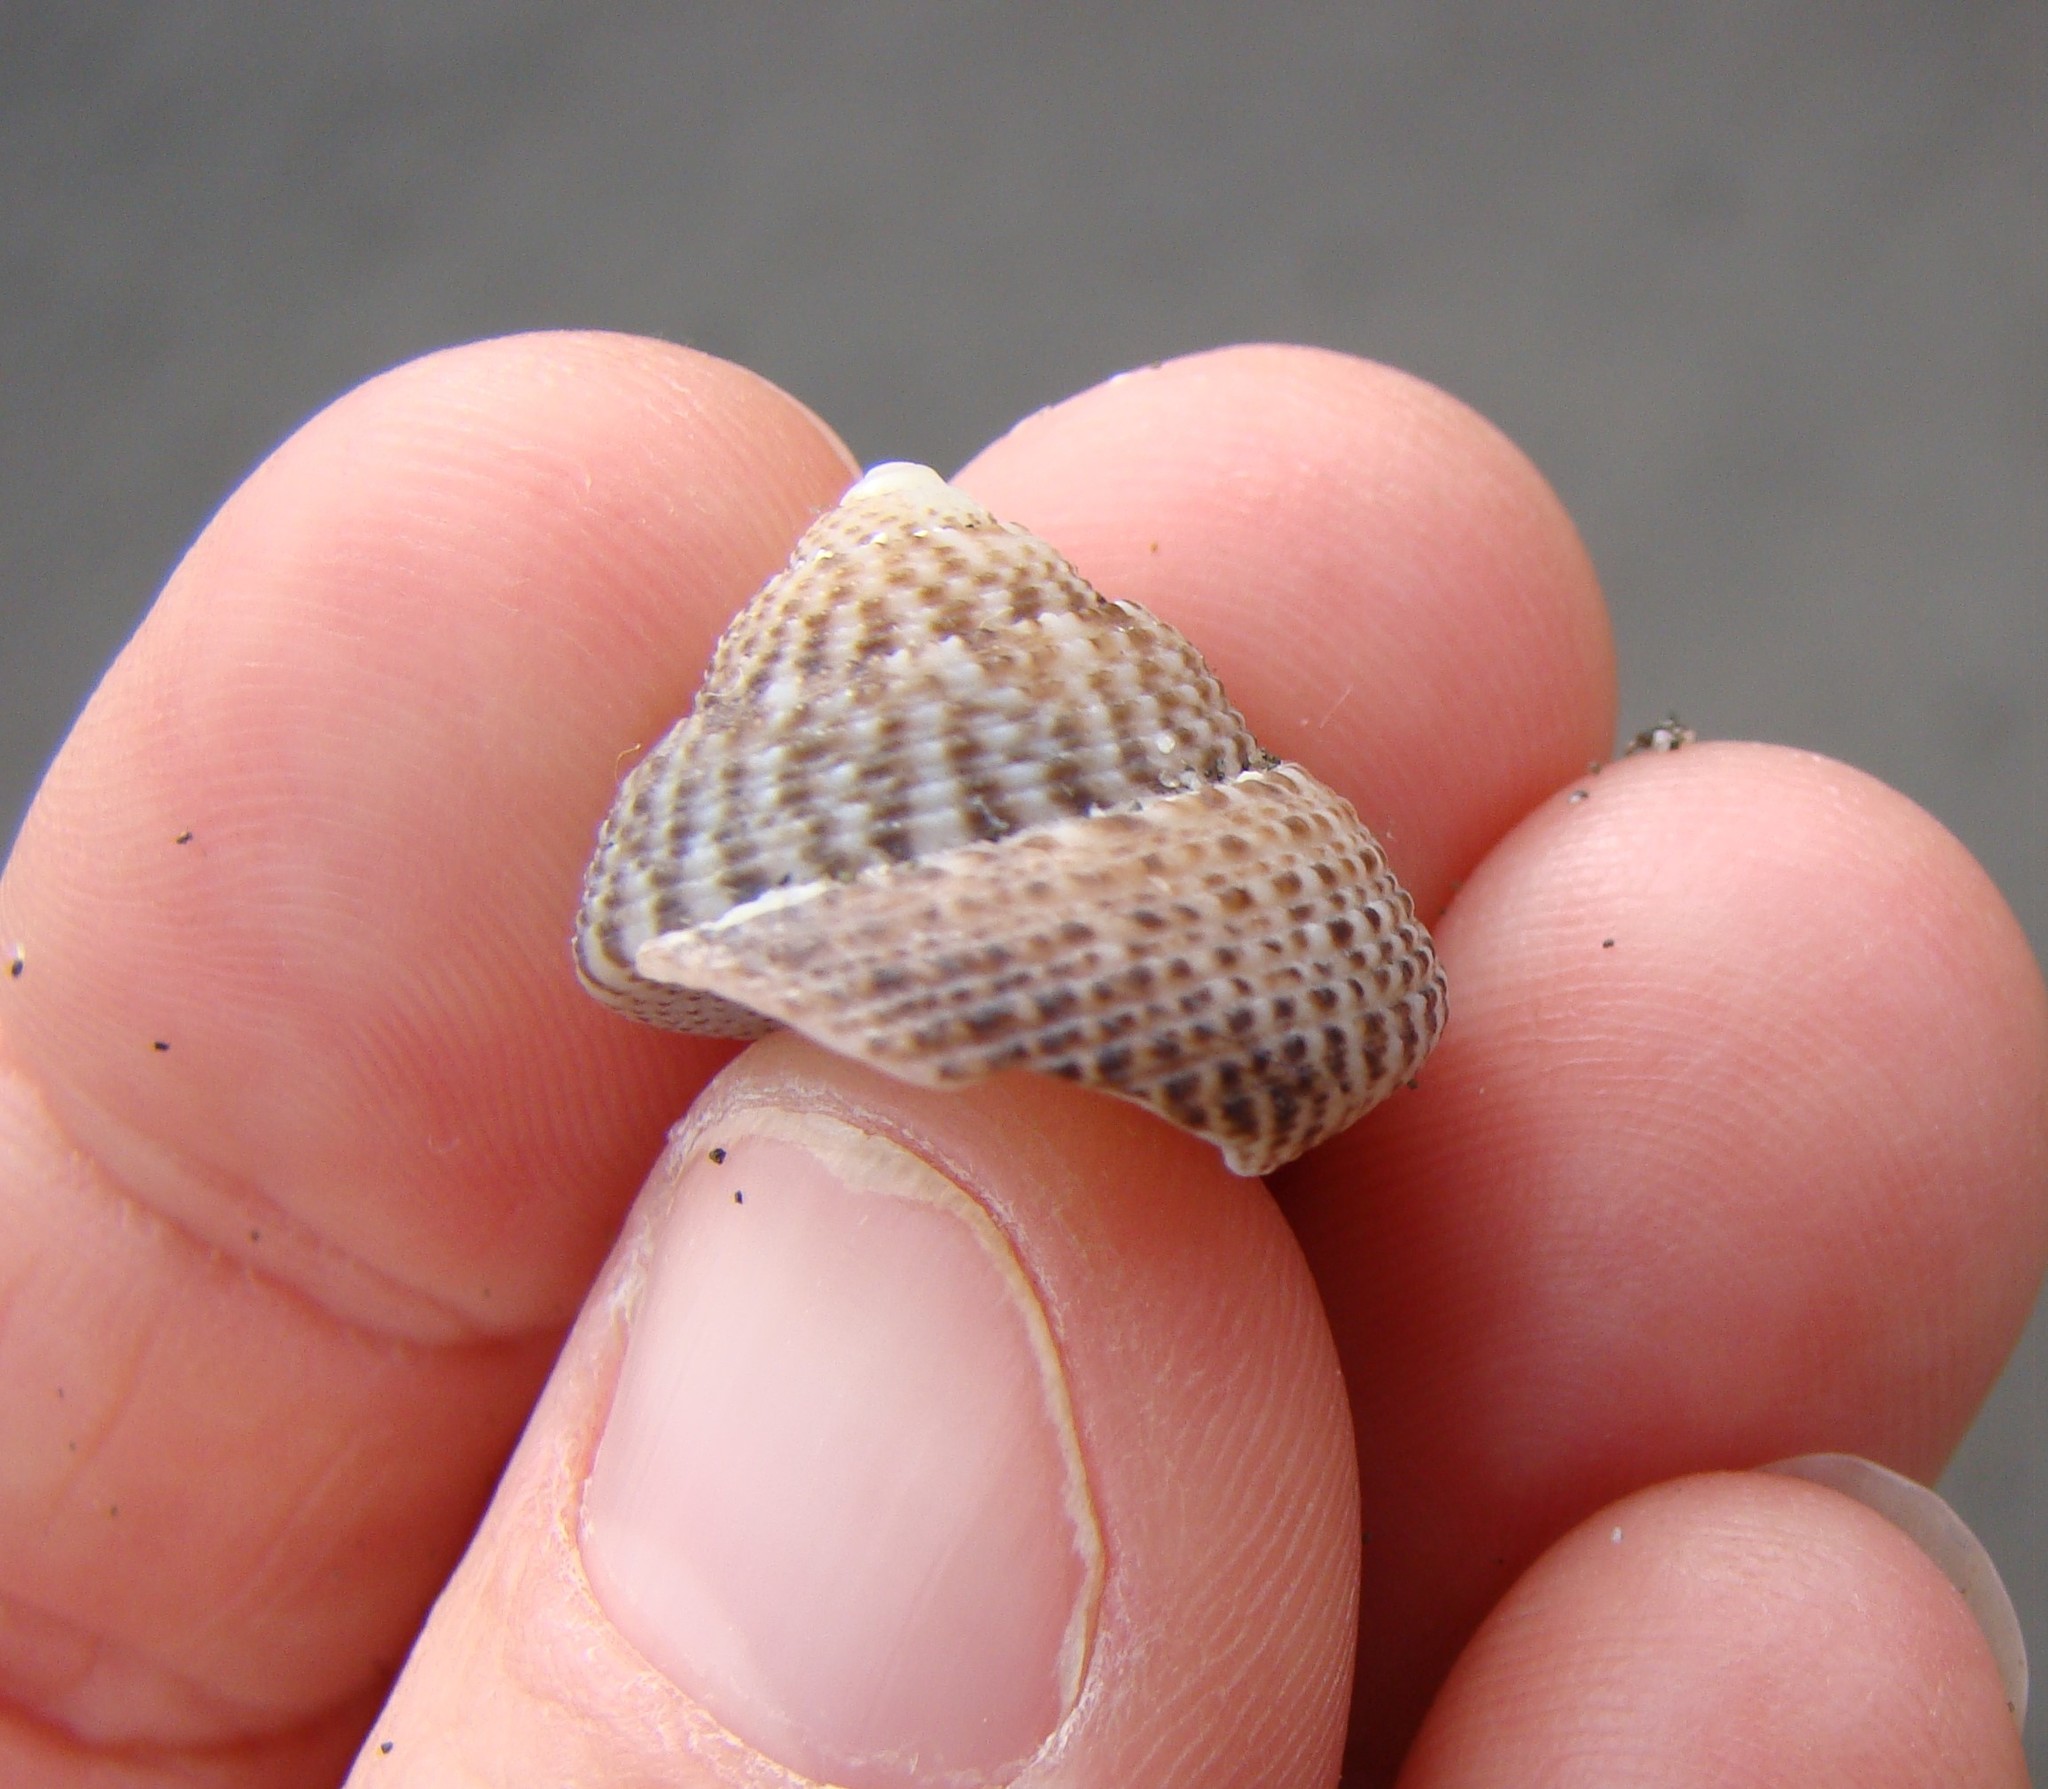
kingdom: Animalia
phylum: Mollusca
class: Gastropoda
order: Trochida
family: Trochidae
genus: Coelotrochus
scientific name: Coelotrochus tiaratus
